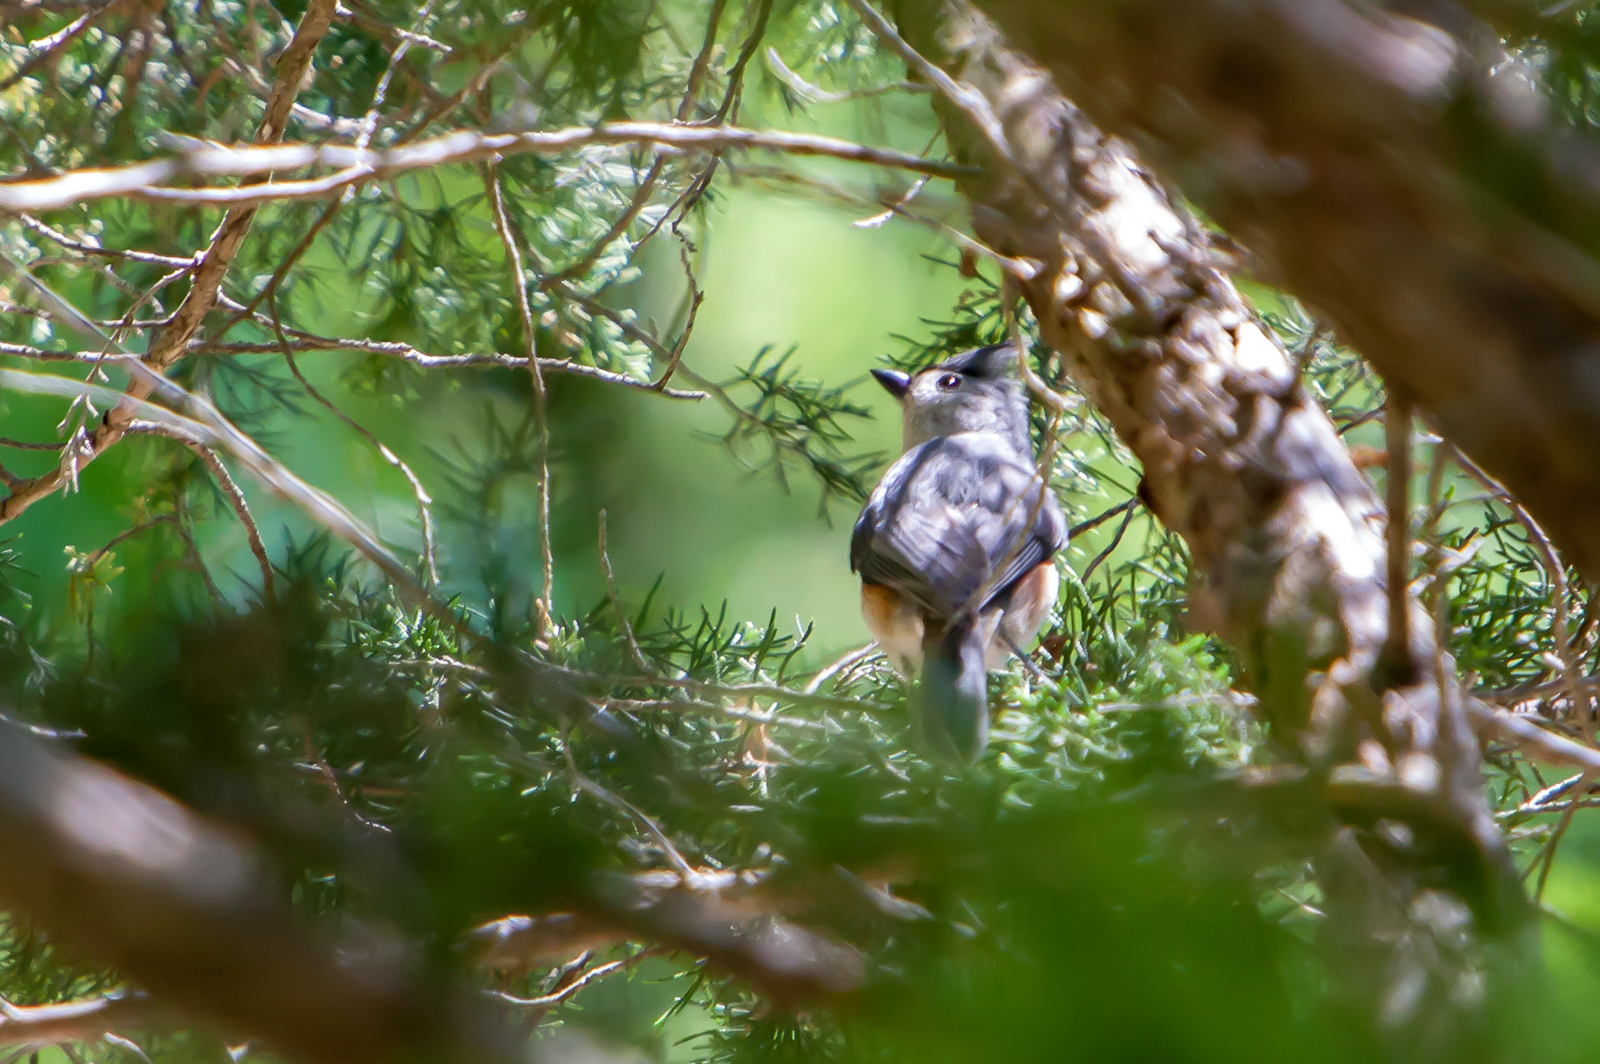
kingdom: Animalia
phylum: Chordata
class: Aves
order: Passeriformes
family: Paridae
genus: Baeolophus
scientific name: Baeolophus bicolor
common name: Tufted titmouse
